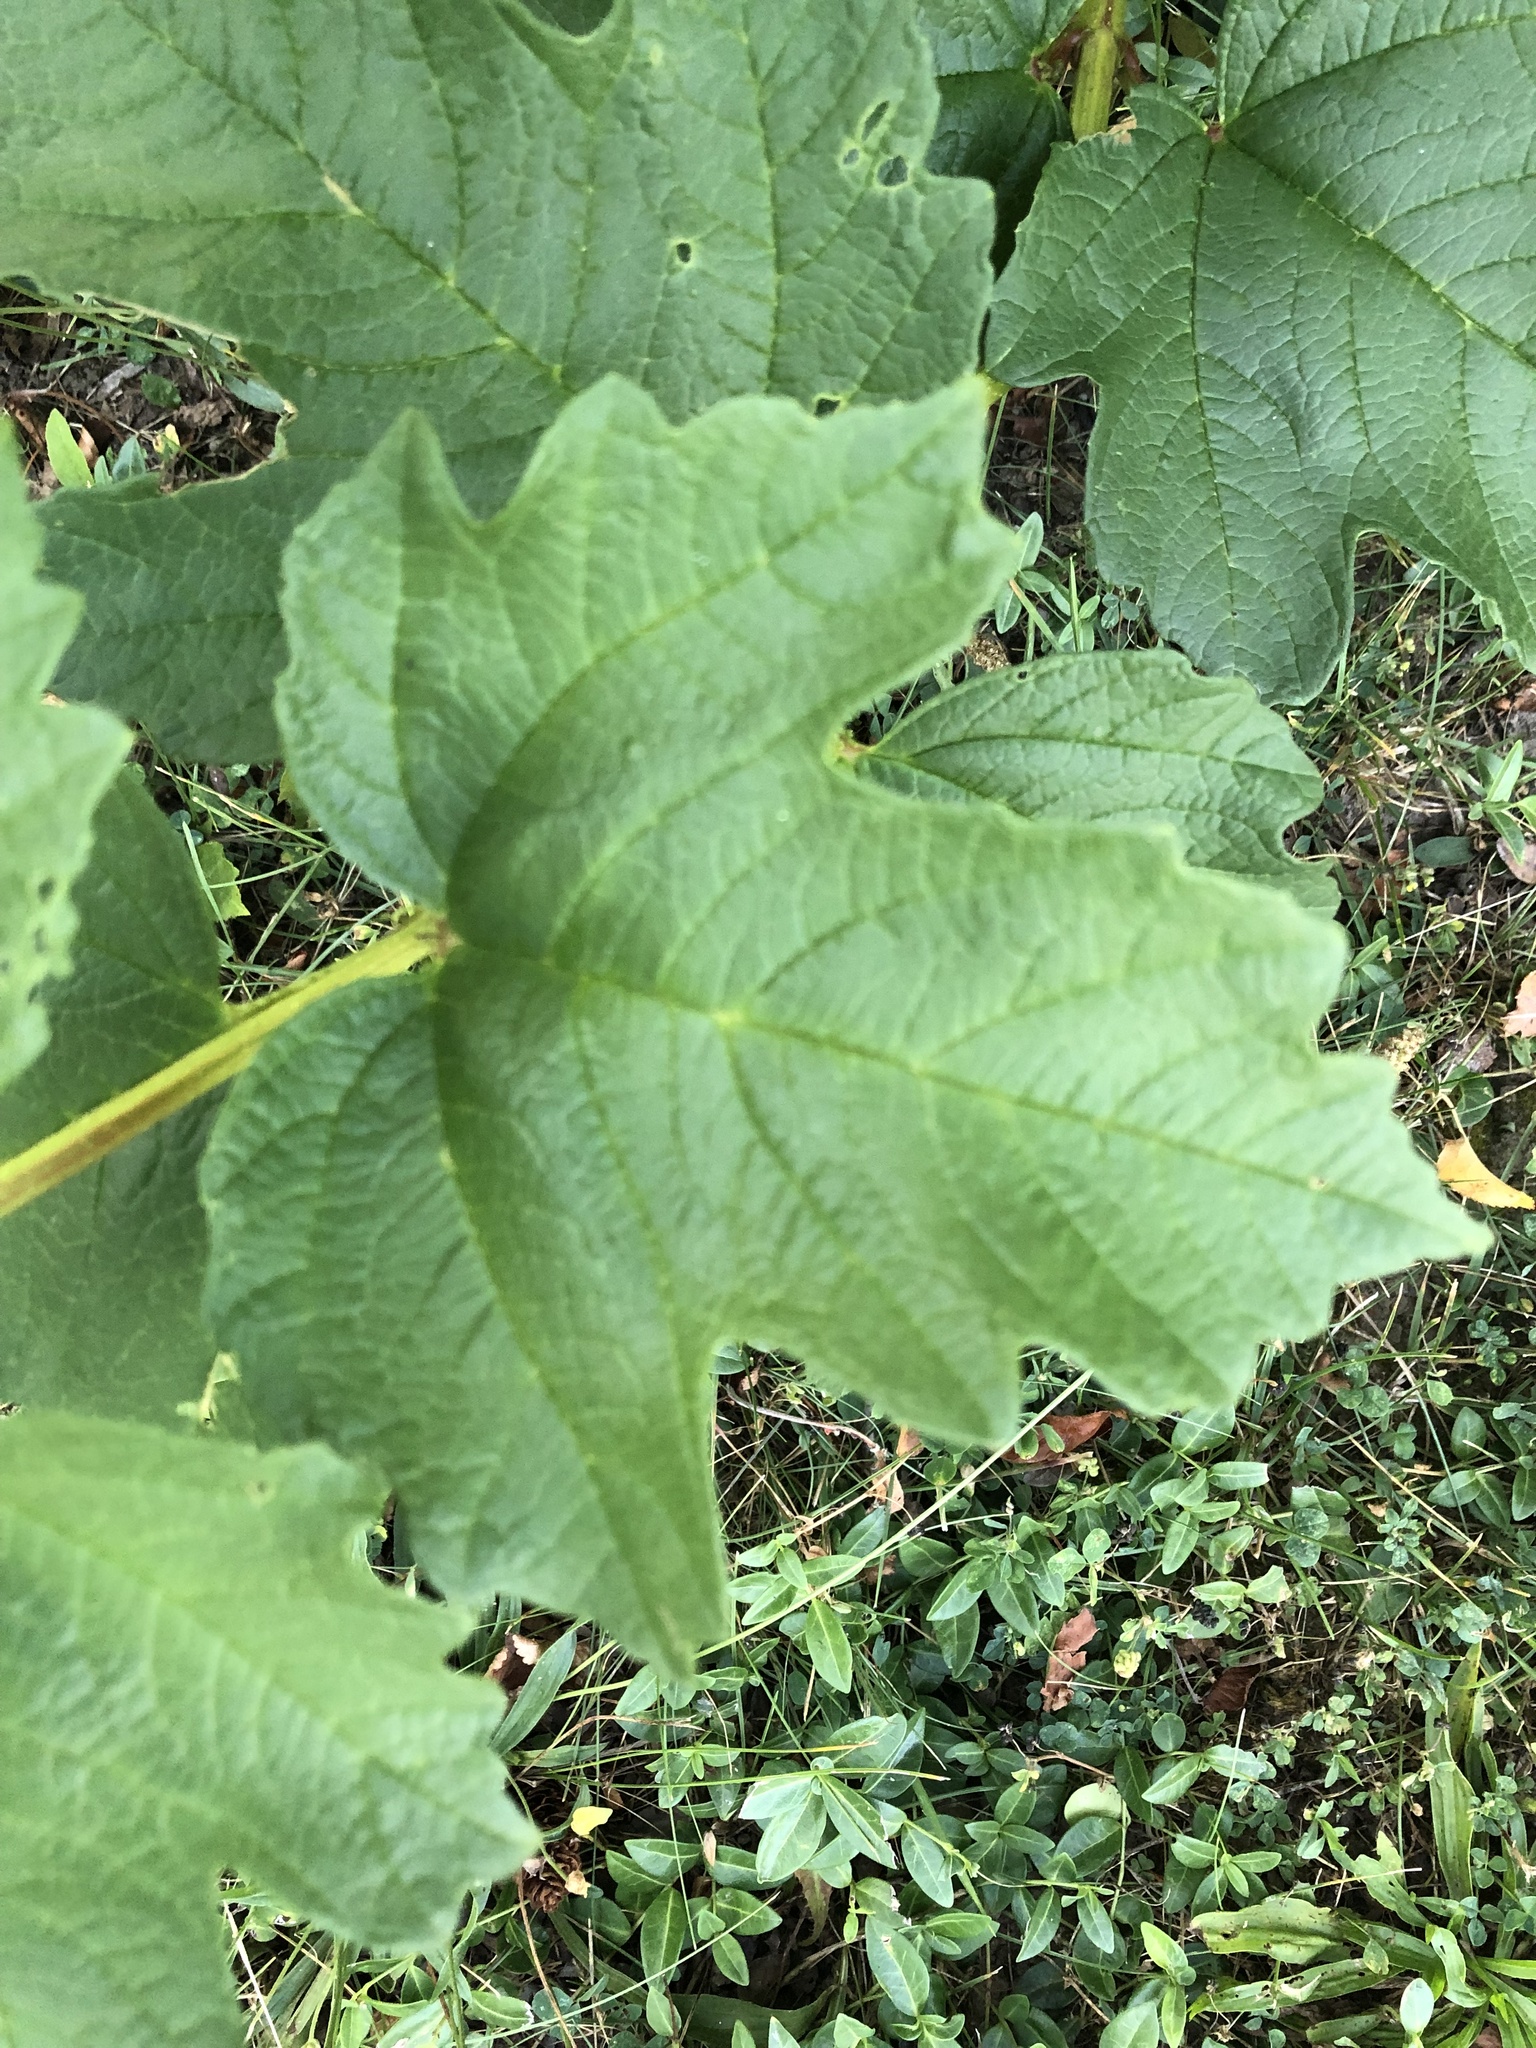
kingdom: Plantae
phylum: Tracheophyta
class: Magnoliopsida
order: Dipsacales
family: Viburnaceae
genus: Viburnum
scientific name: Viburnum opulus
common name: Guelder-rose
